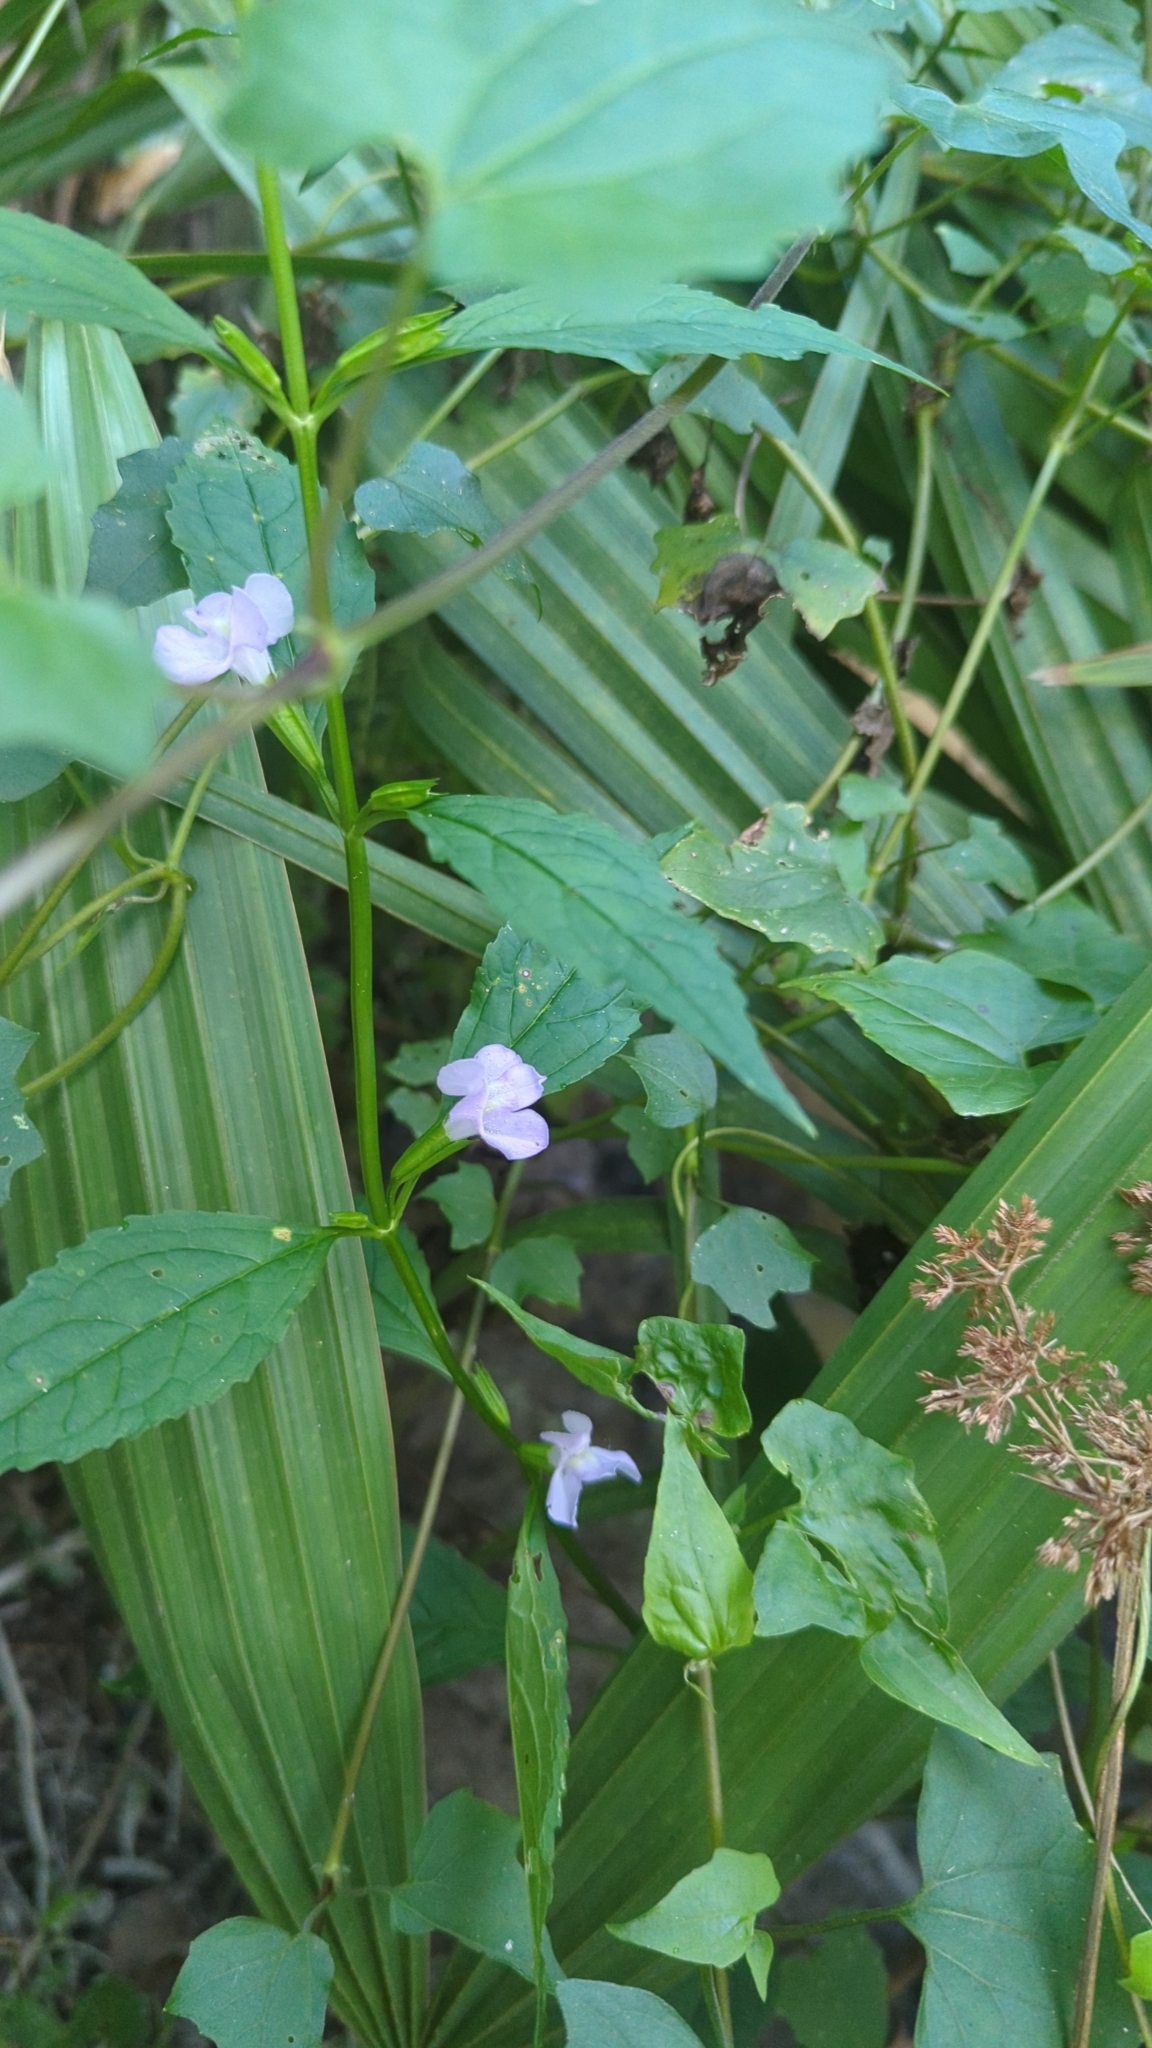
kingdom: Plantae
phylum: Tracheophyta
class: Magnoliopsida
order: Lamiales
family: Phrymaceae
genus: Mimulus
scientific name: Mimulus alatus
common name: Sharp-wing monkey-flower
